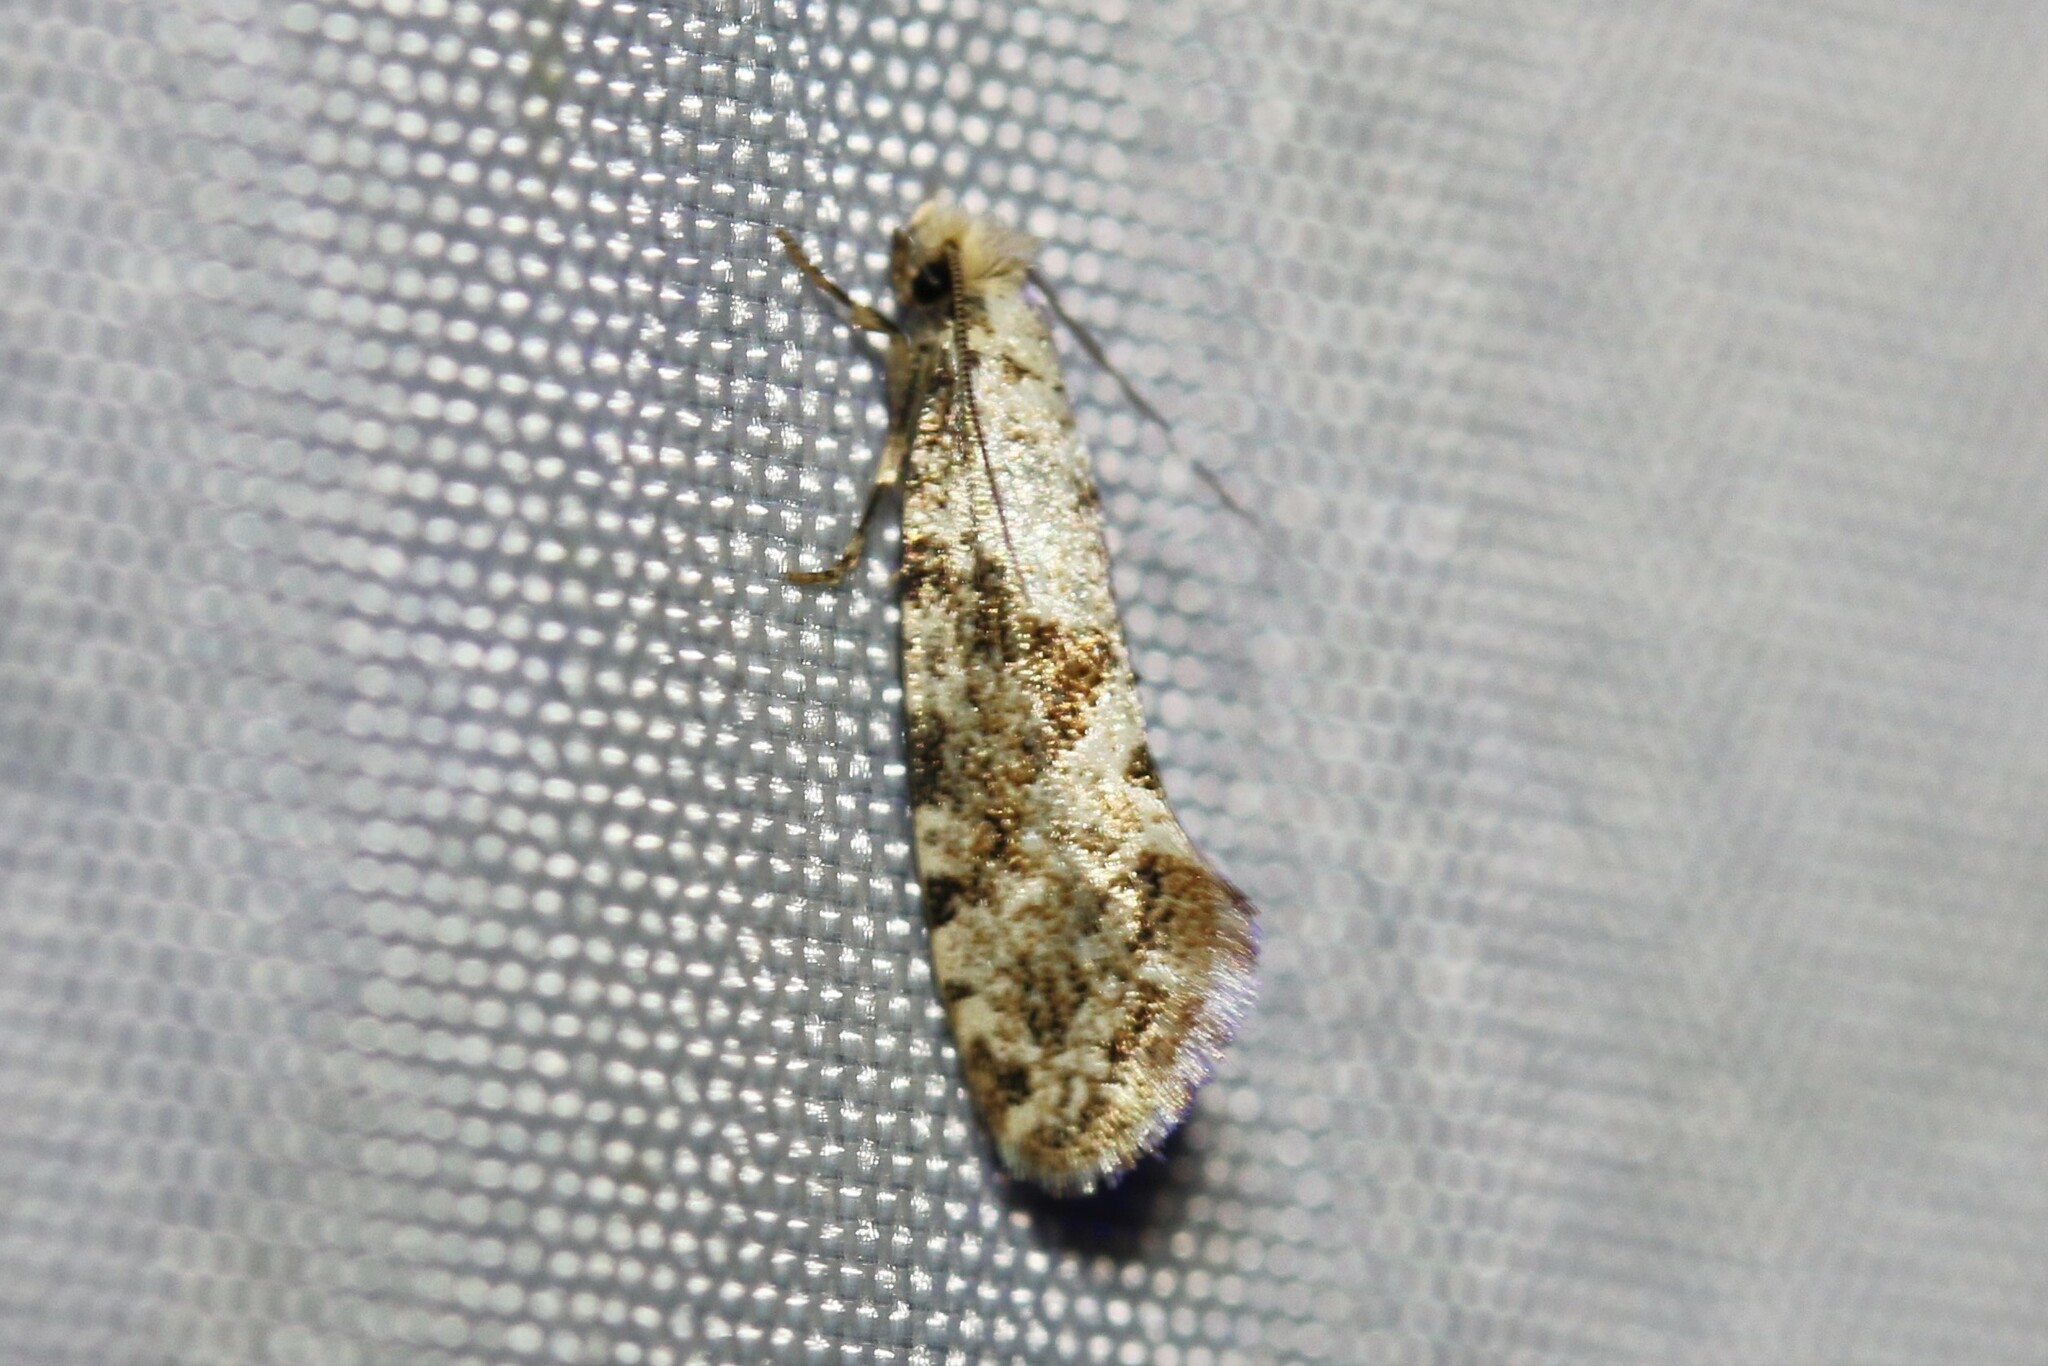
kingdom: Animalia
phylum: Arthropoda
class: Insecta
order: Lepidoptera
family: Tineidae
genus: Nemaxera
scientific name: Nemaxera betulinella
